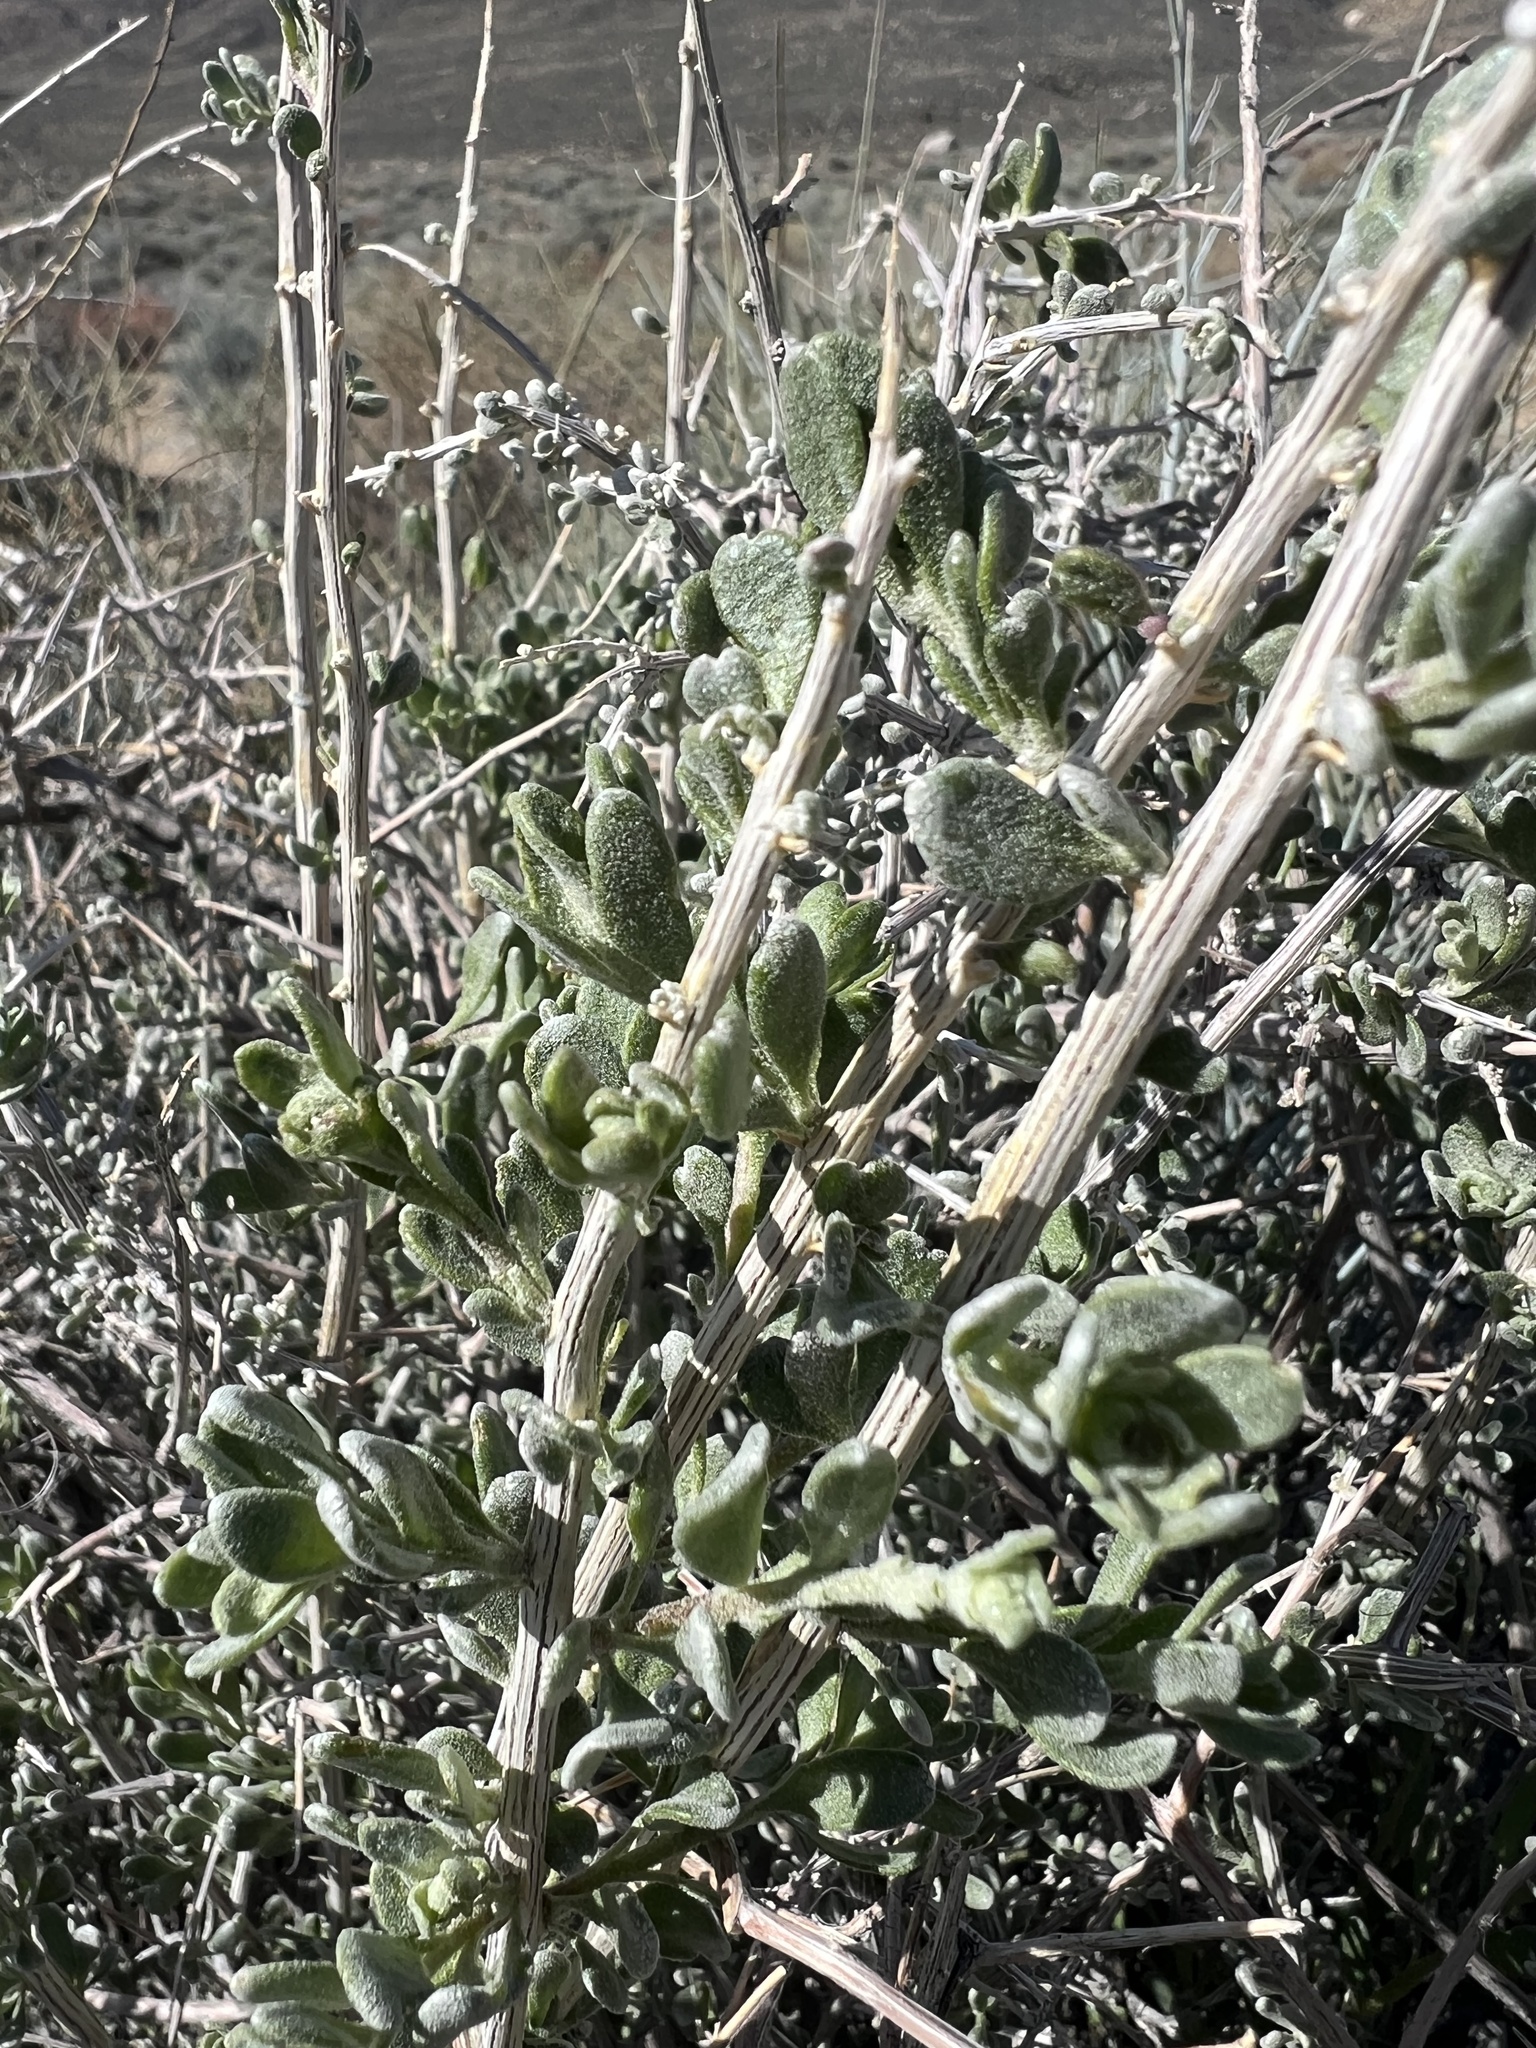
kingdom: Plantae
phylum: Tracheophyta
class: Magnoliopsida
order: Caryophyllales
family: Amaranthaceae
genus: Grayia
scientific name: Grayia spinosa
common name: Spiny hopsage
